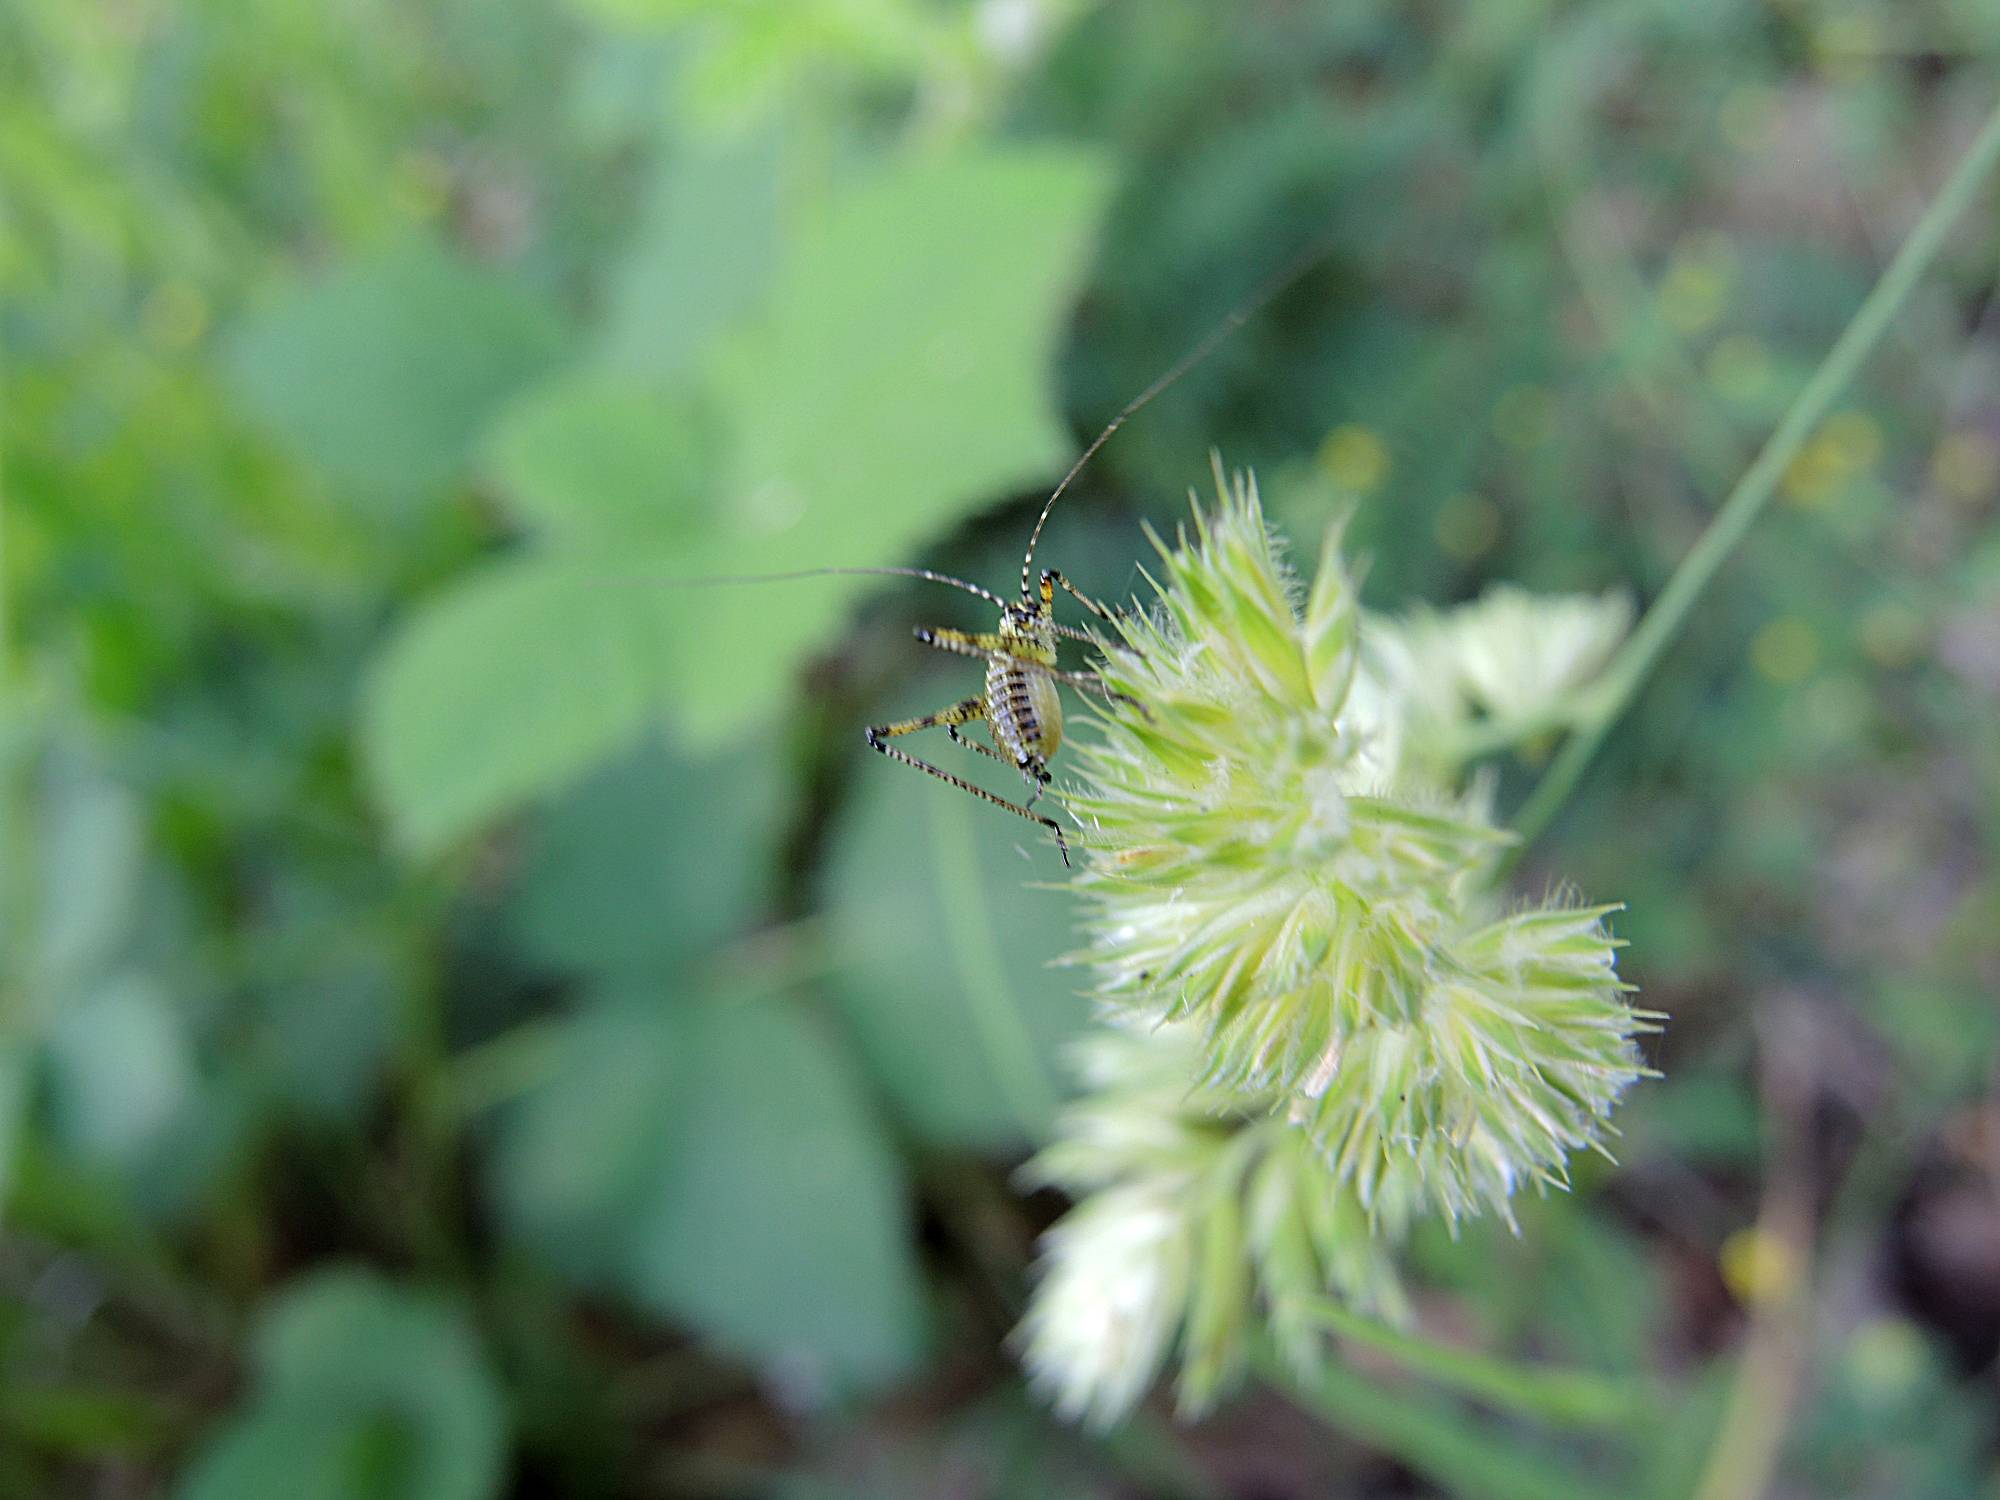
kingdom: Animalia
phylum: Arthropoda
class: Insecta
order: Orthoptera
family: Tettigoniidae
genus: Phaneroptera
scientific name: Phaneroptera nana
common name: Southern sickle bush-cricket
